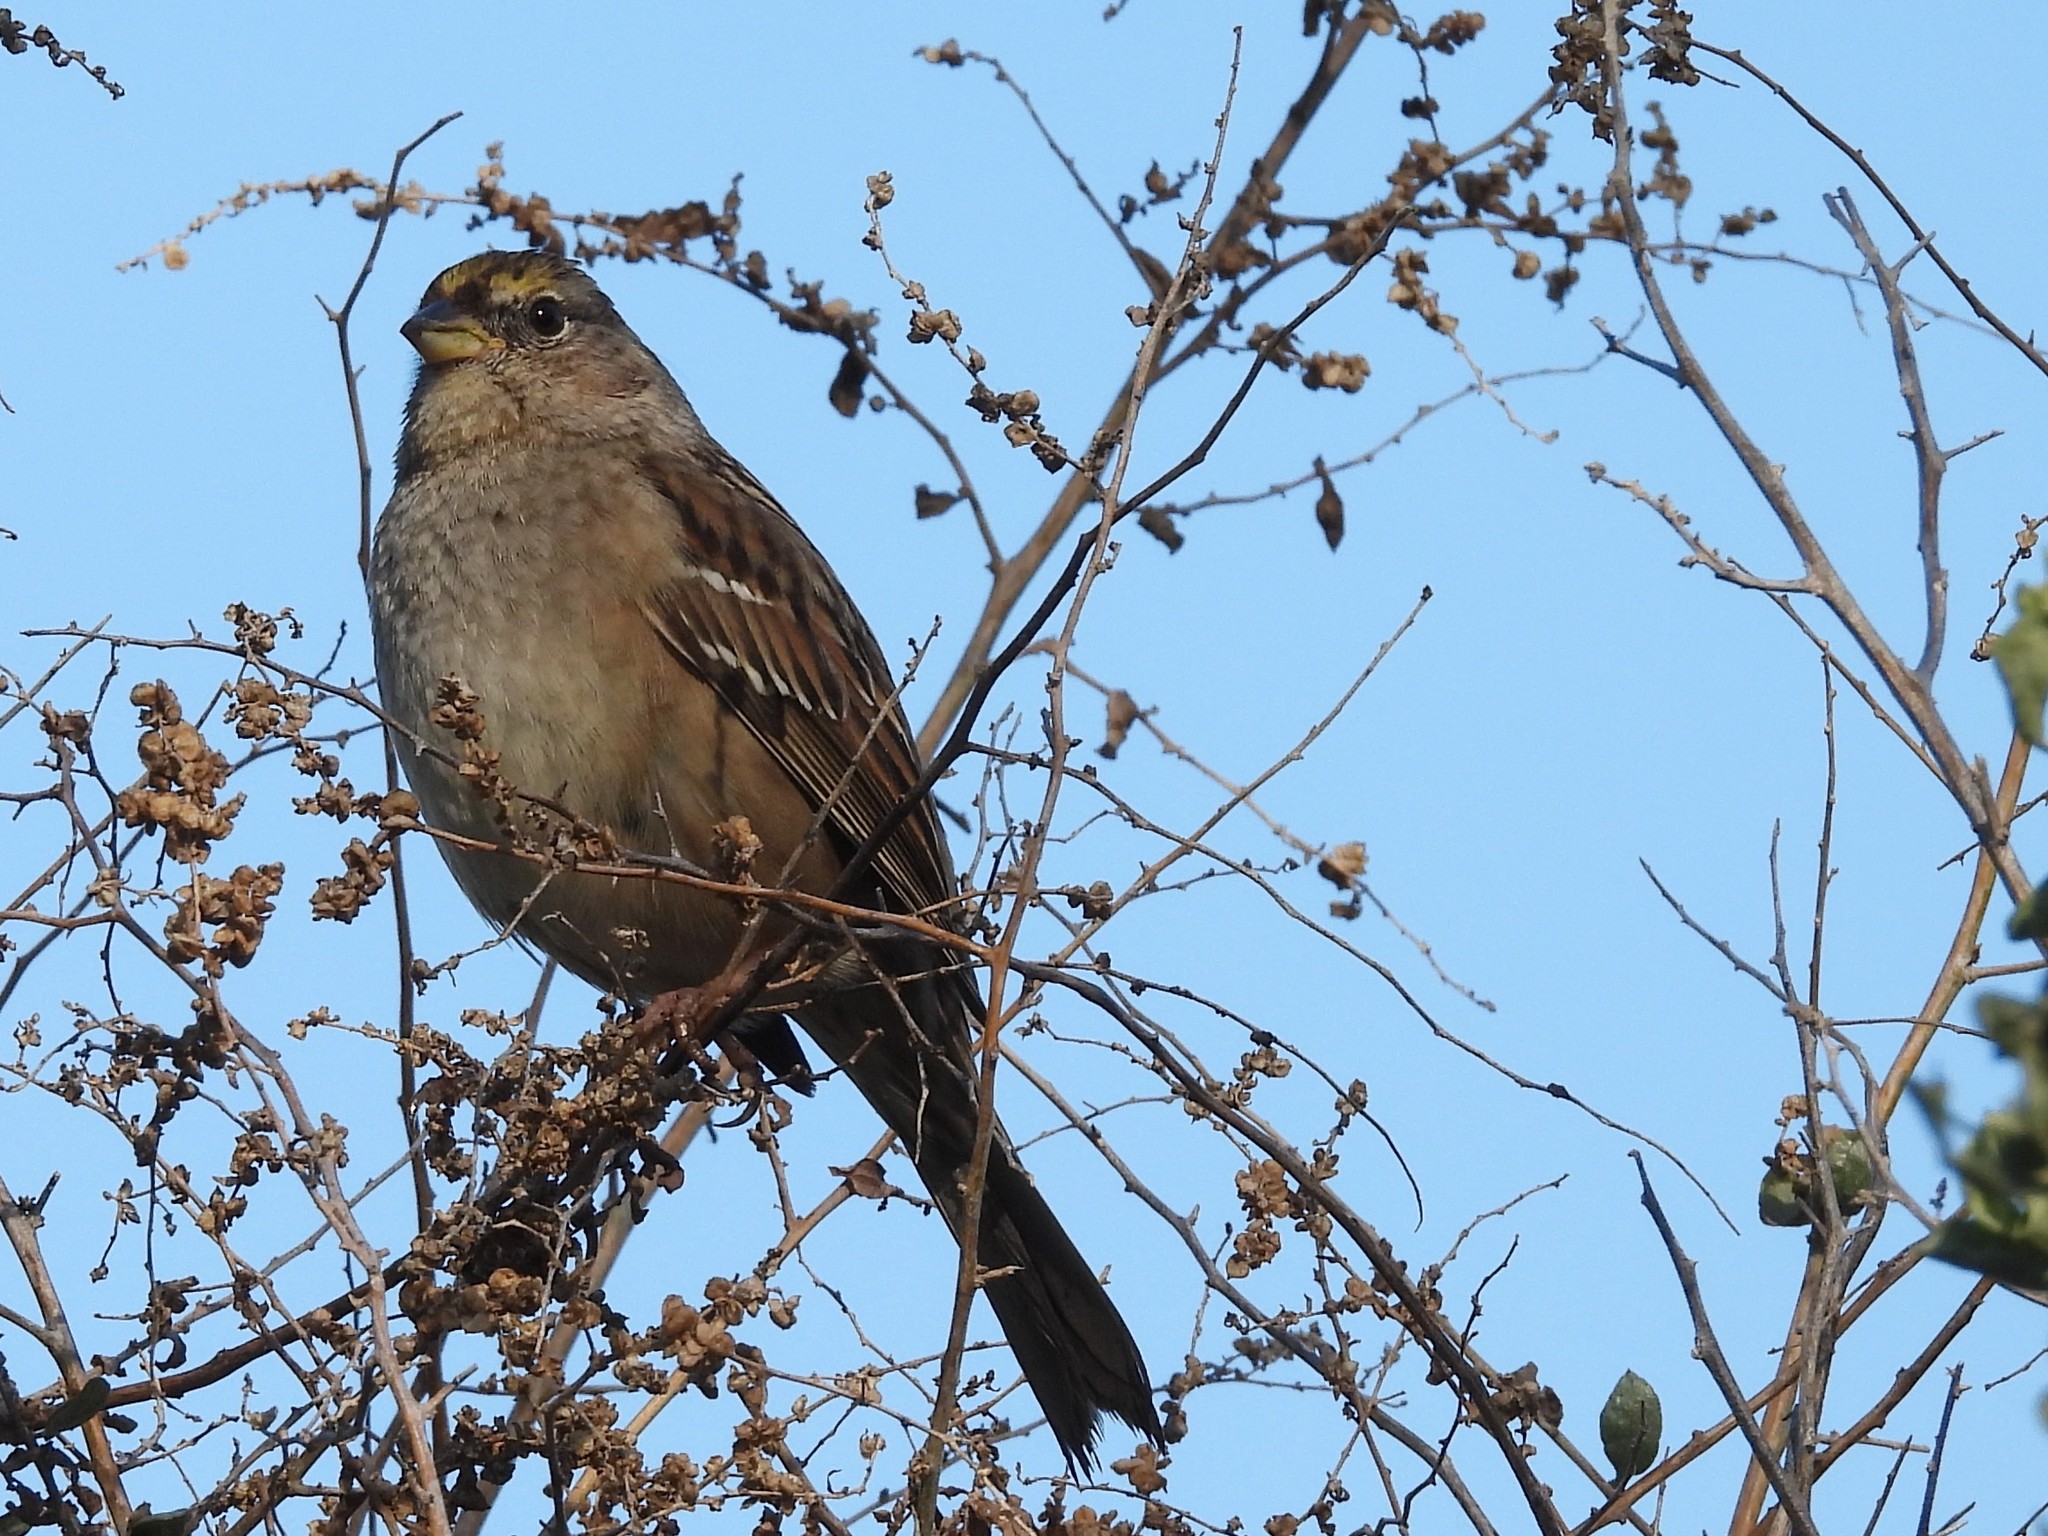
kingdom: Animalia
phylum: Chordata
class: Aves
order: Passeriformes
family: Passerellidae
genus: Zonotrichia
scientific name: Zonotrichia atricapilla
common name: Golden-crowned sparrow
